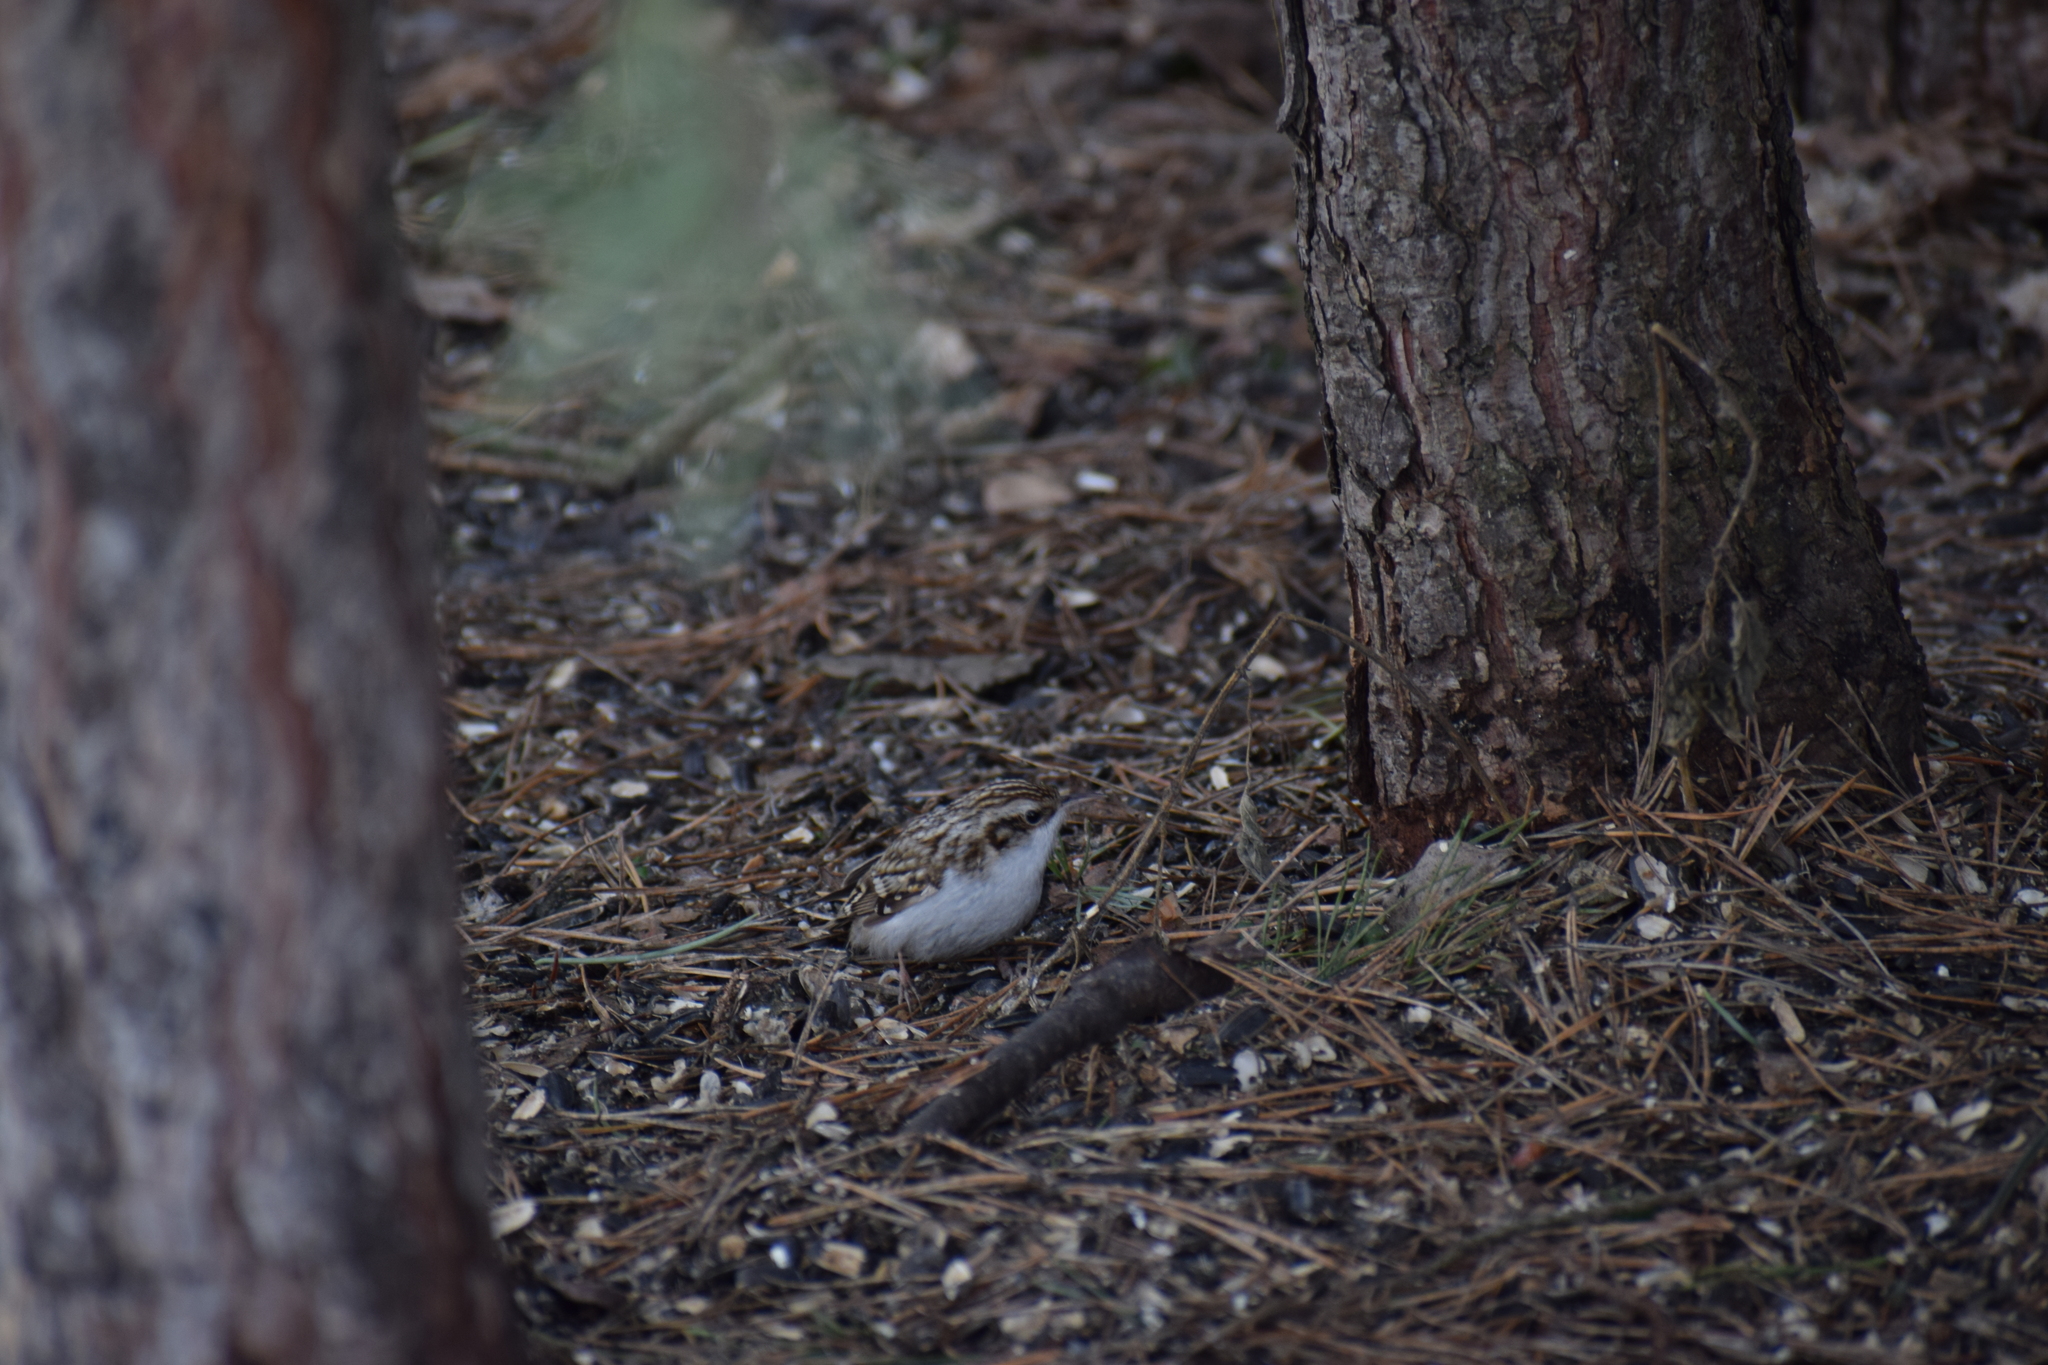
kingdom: Animalia
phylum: Chordata
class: Aves
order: Passeriformes
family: Certhiidae
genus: Certhia
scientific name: Certhia familiaris
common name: Eurasian treecreeper
